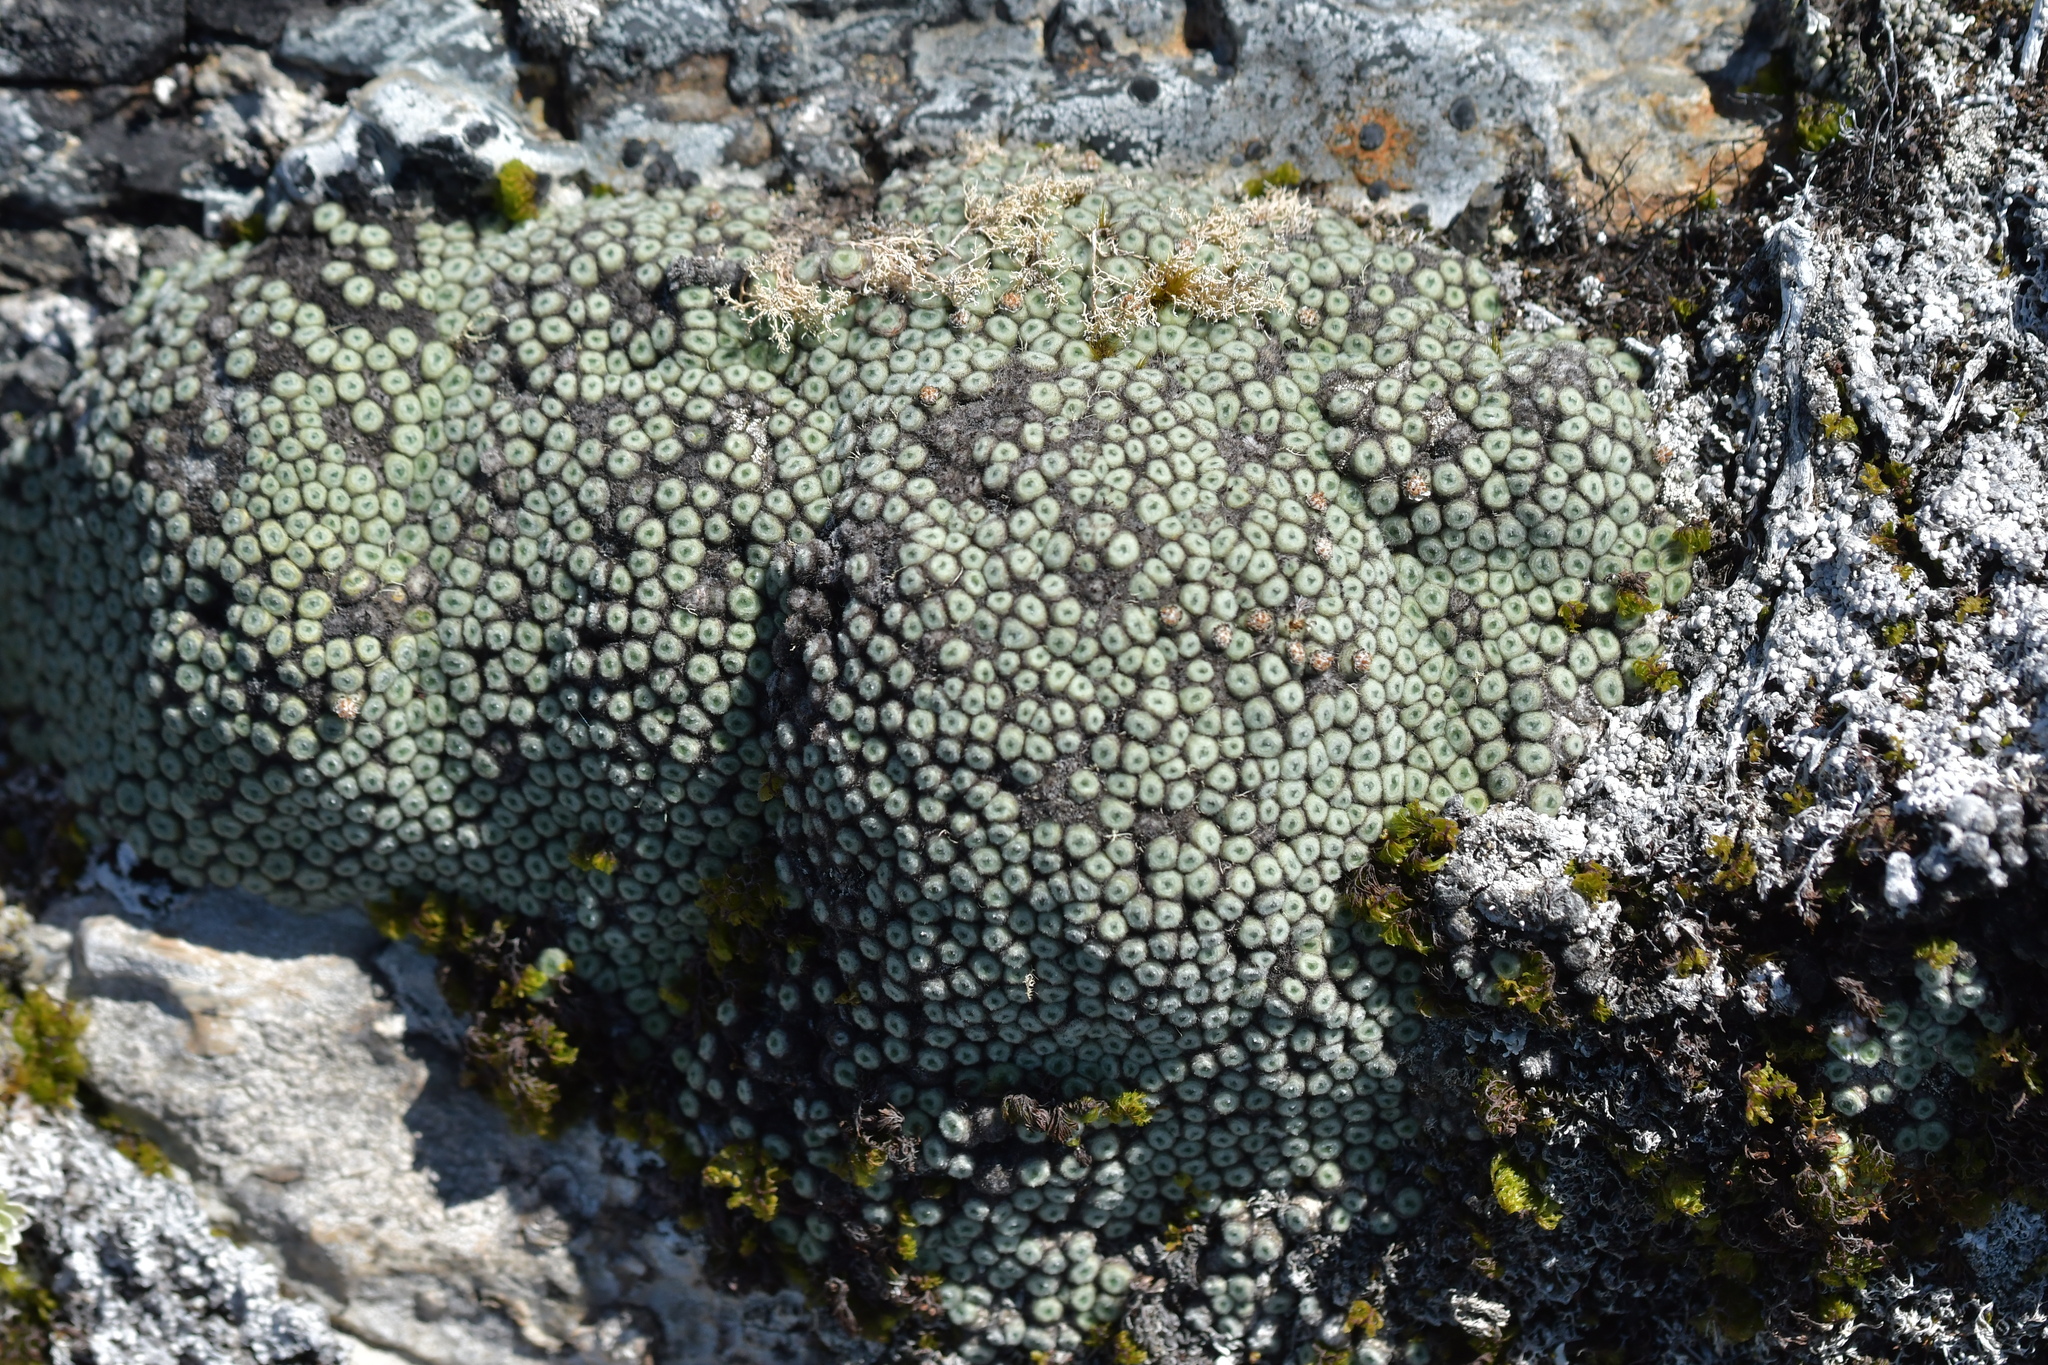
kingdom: Plantae
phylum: Tracheophyta
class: Magnoliopsida
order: Asterales
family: Asteraceae
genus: Raoulia
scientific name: Raoulia rubra
